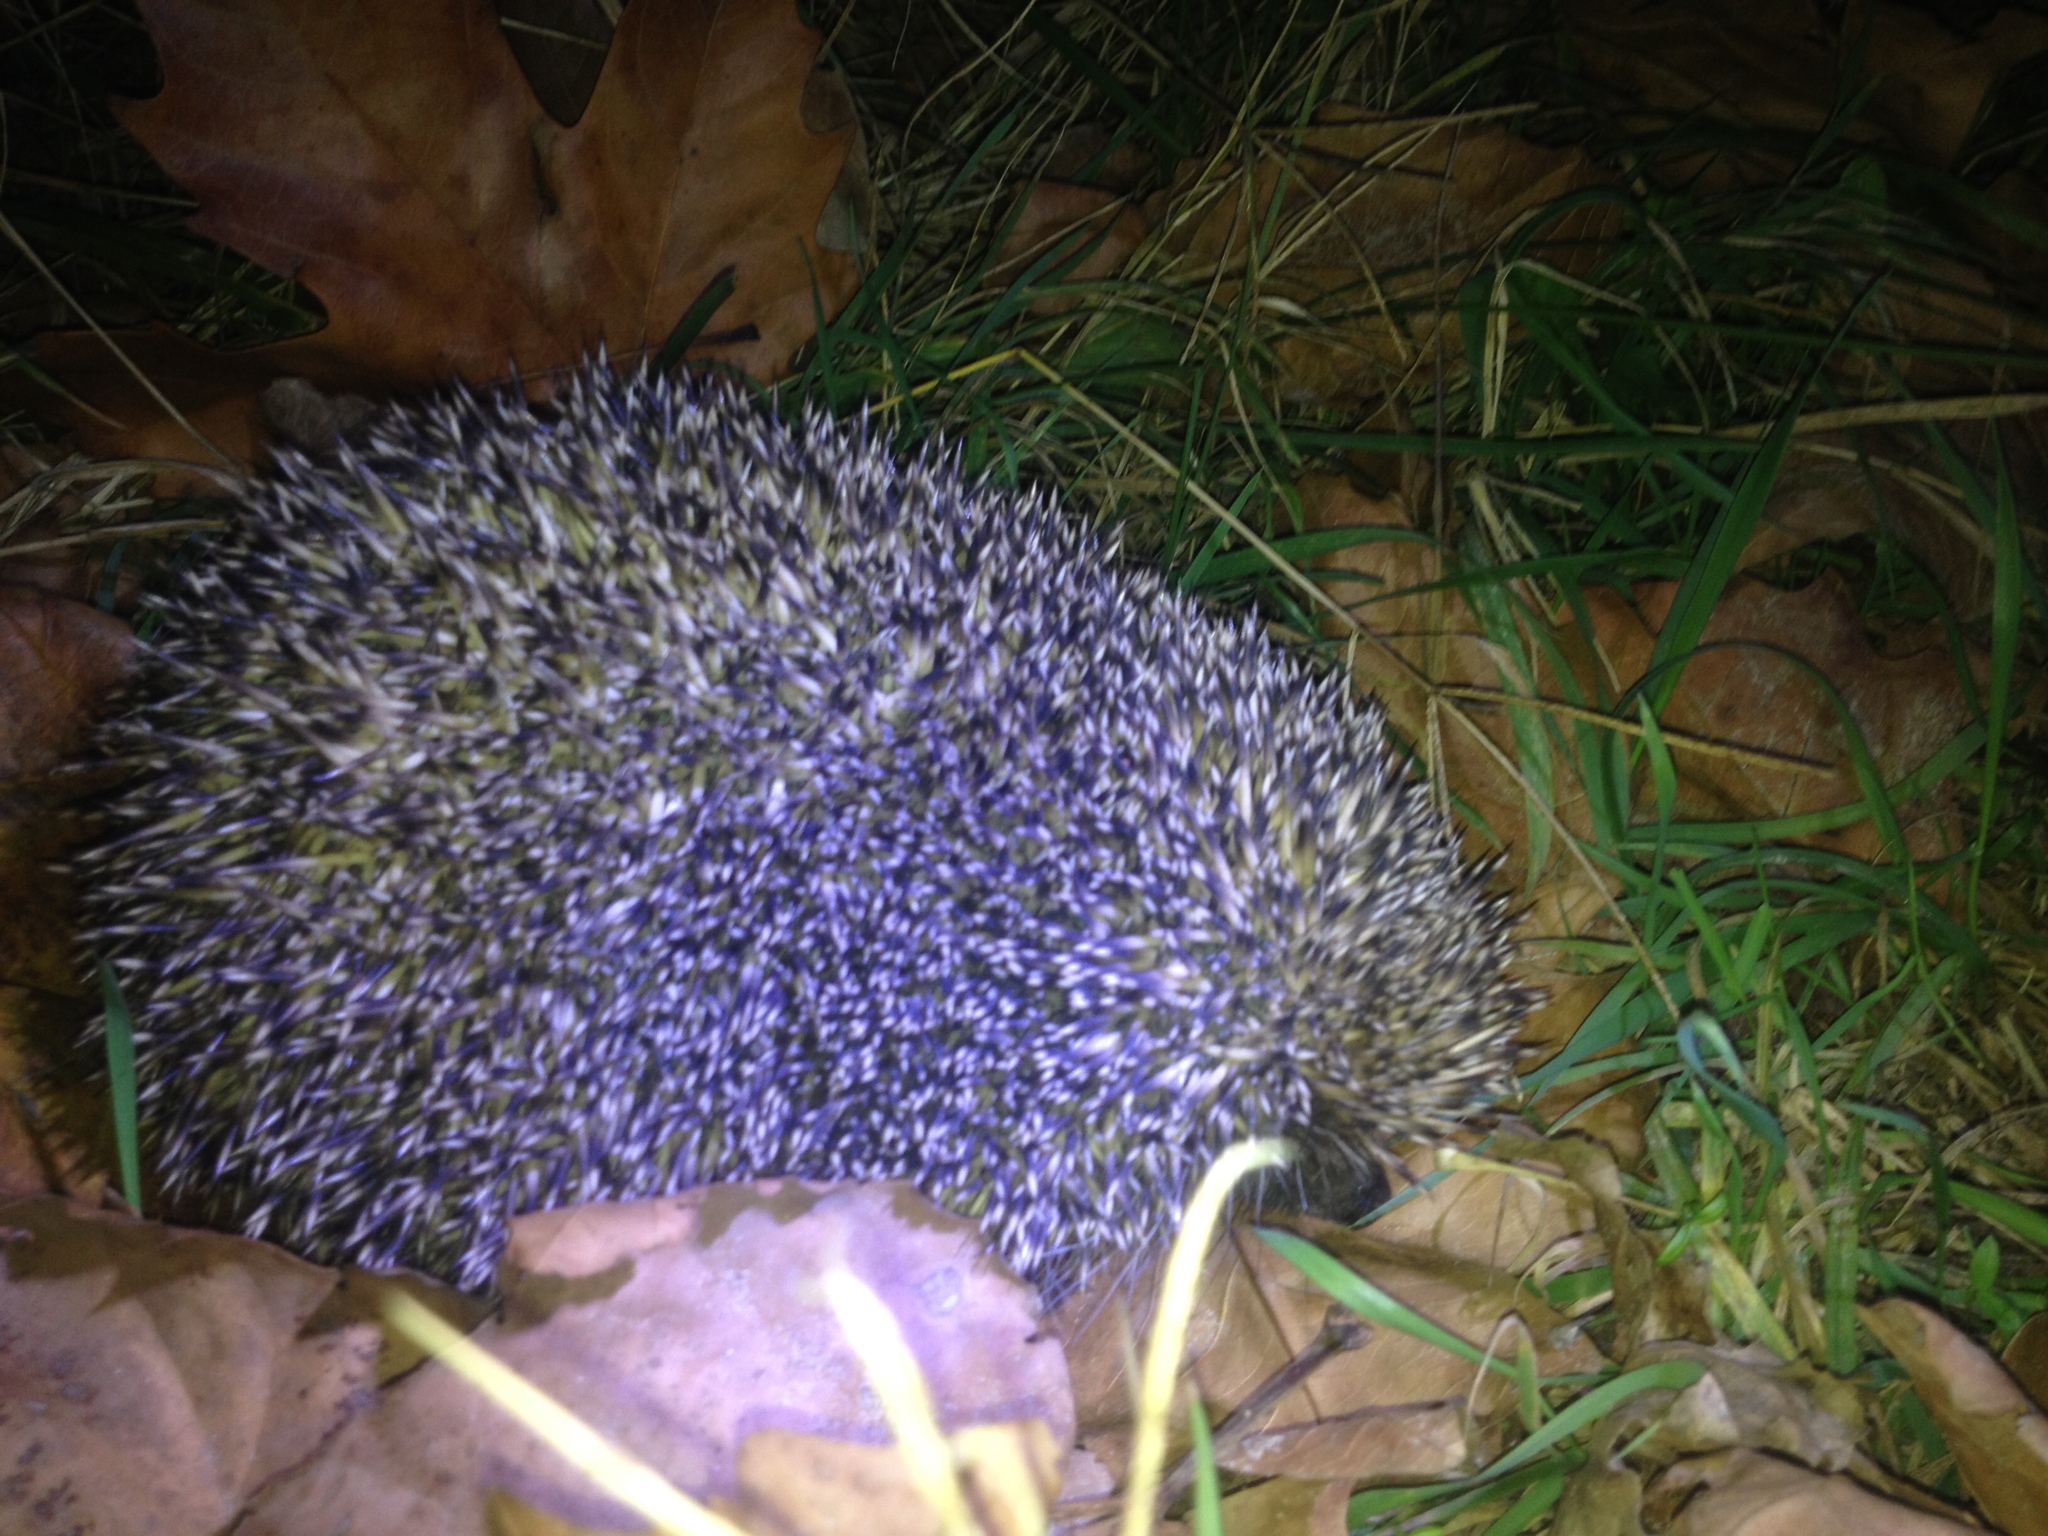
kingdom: Animalia
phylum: Chordata
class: Mammalia
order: Erinaceomorpha
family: Erinaceidae
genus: Erinaceus
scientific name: Erinaceus roumanicus
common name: Northern white-breasted hedgehog
